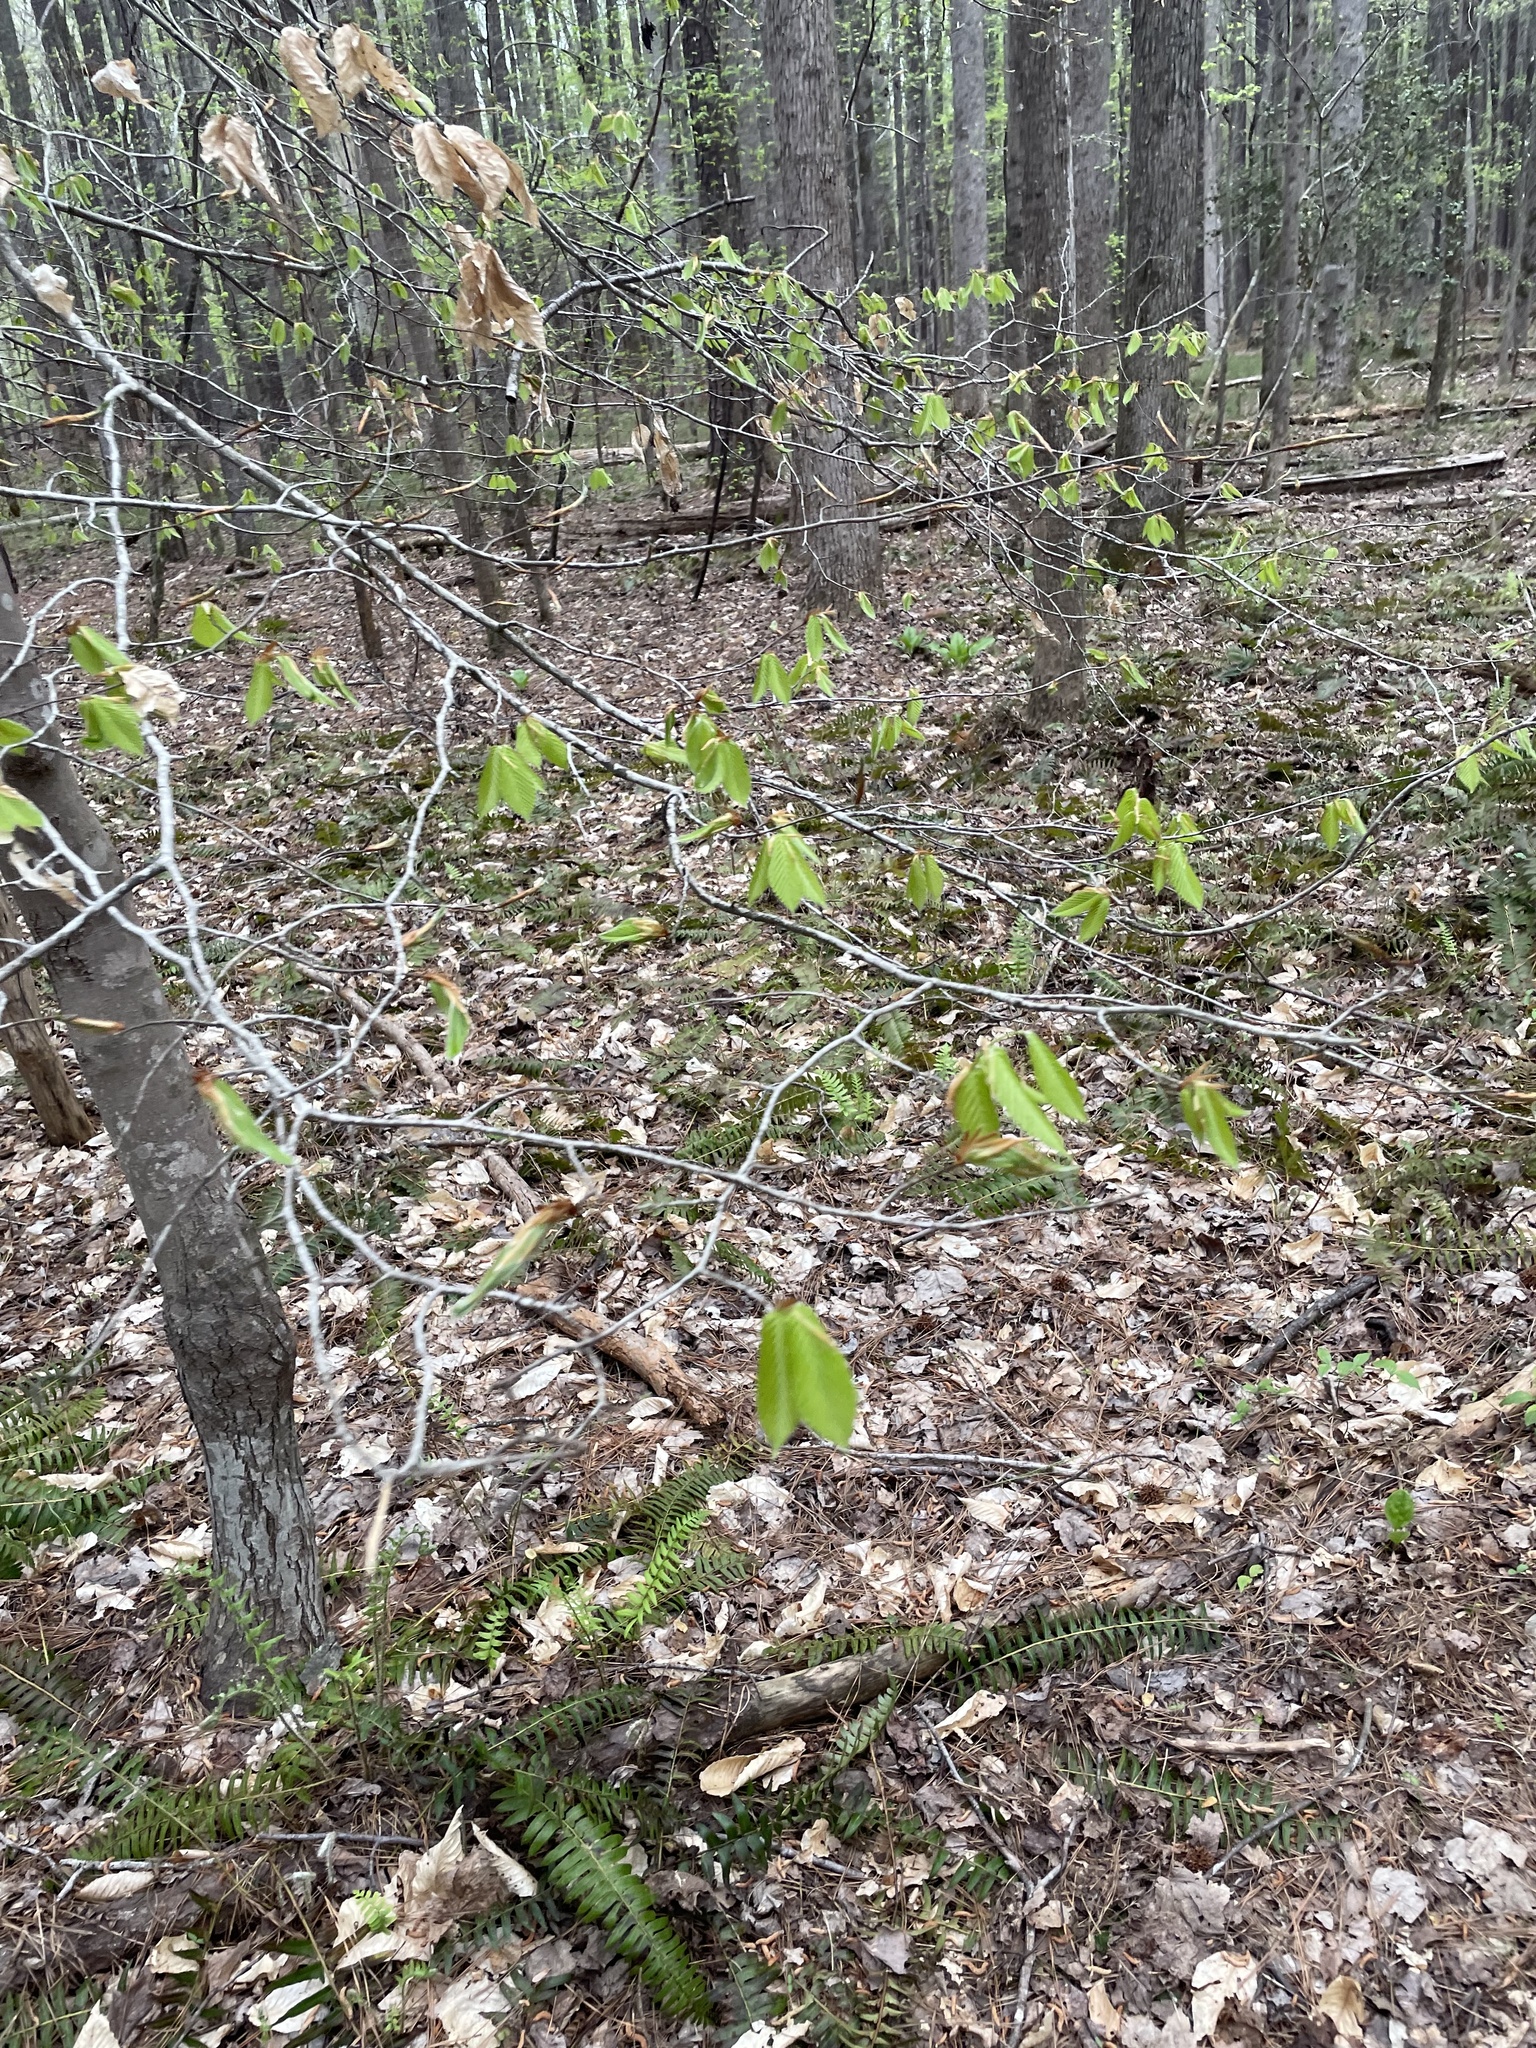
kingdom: Plantae
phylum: Tracheophyta
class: Magnoliopsida
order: Fagales
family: Fagaceae
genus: Fagus
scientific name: Fagus grandifolia
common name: American beech
